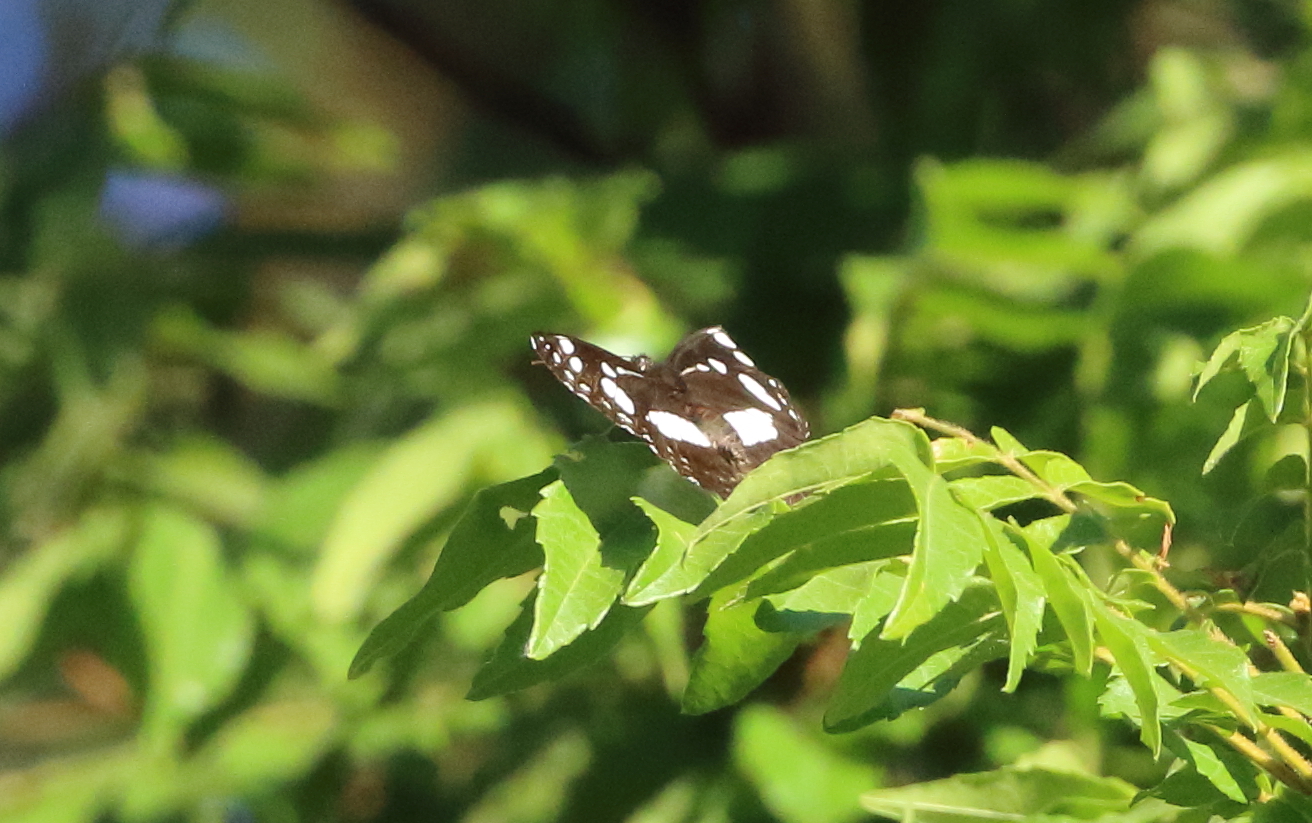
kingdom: Animalia
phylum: Arthropoda
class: Insecta
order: Lepidoptera
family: Nymphalidae
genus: Phaedyma
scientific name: Phaedyma shepherdi
